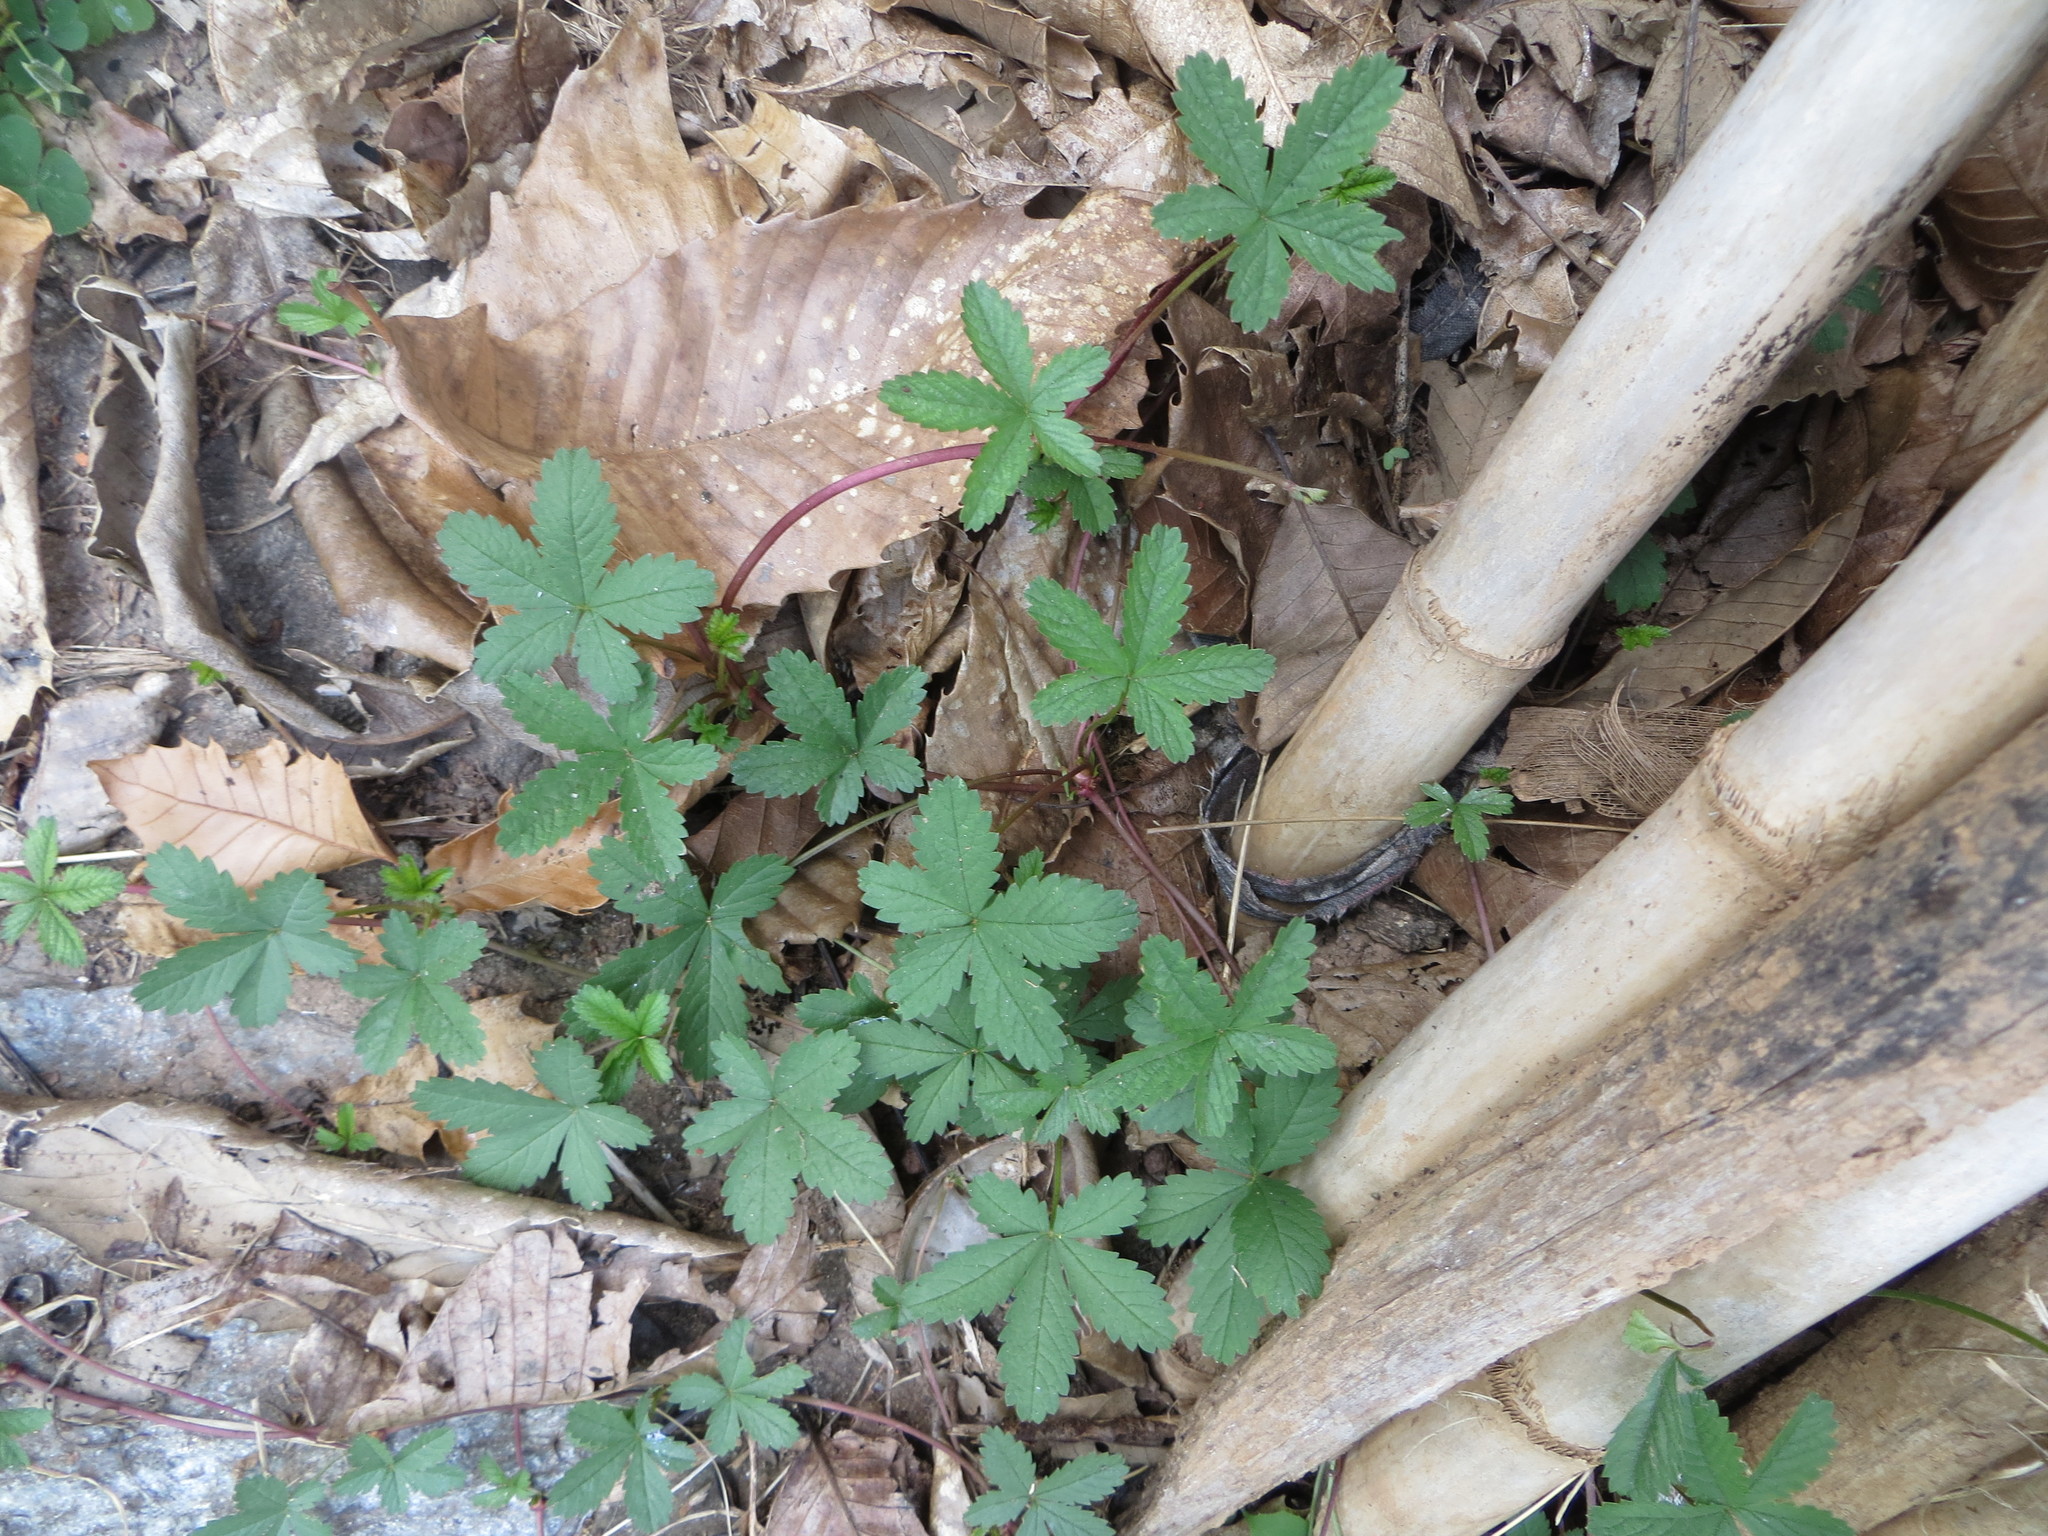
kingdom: Plantae
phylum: Tracheophyta
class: Magnoliopsida
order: Rosales
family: Rosaceae
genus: Potentilla
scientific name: Potentilla reptans
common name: Creeping cinquefoil
